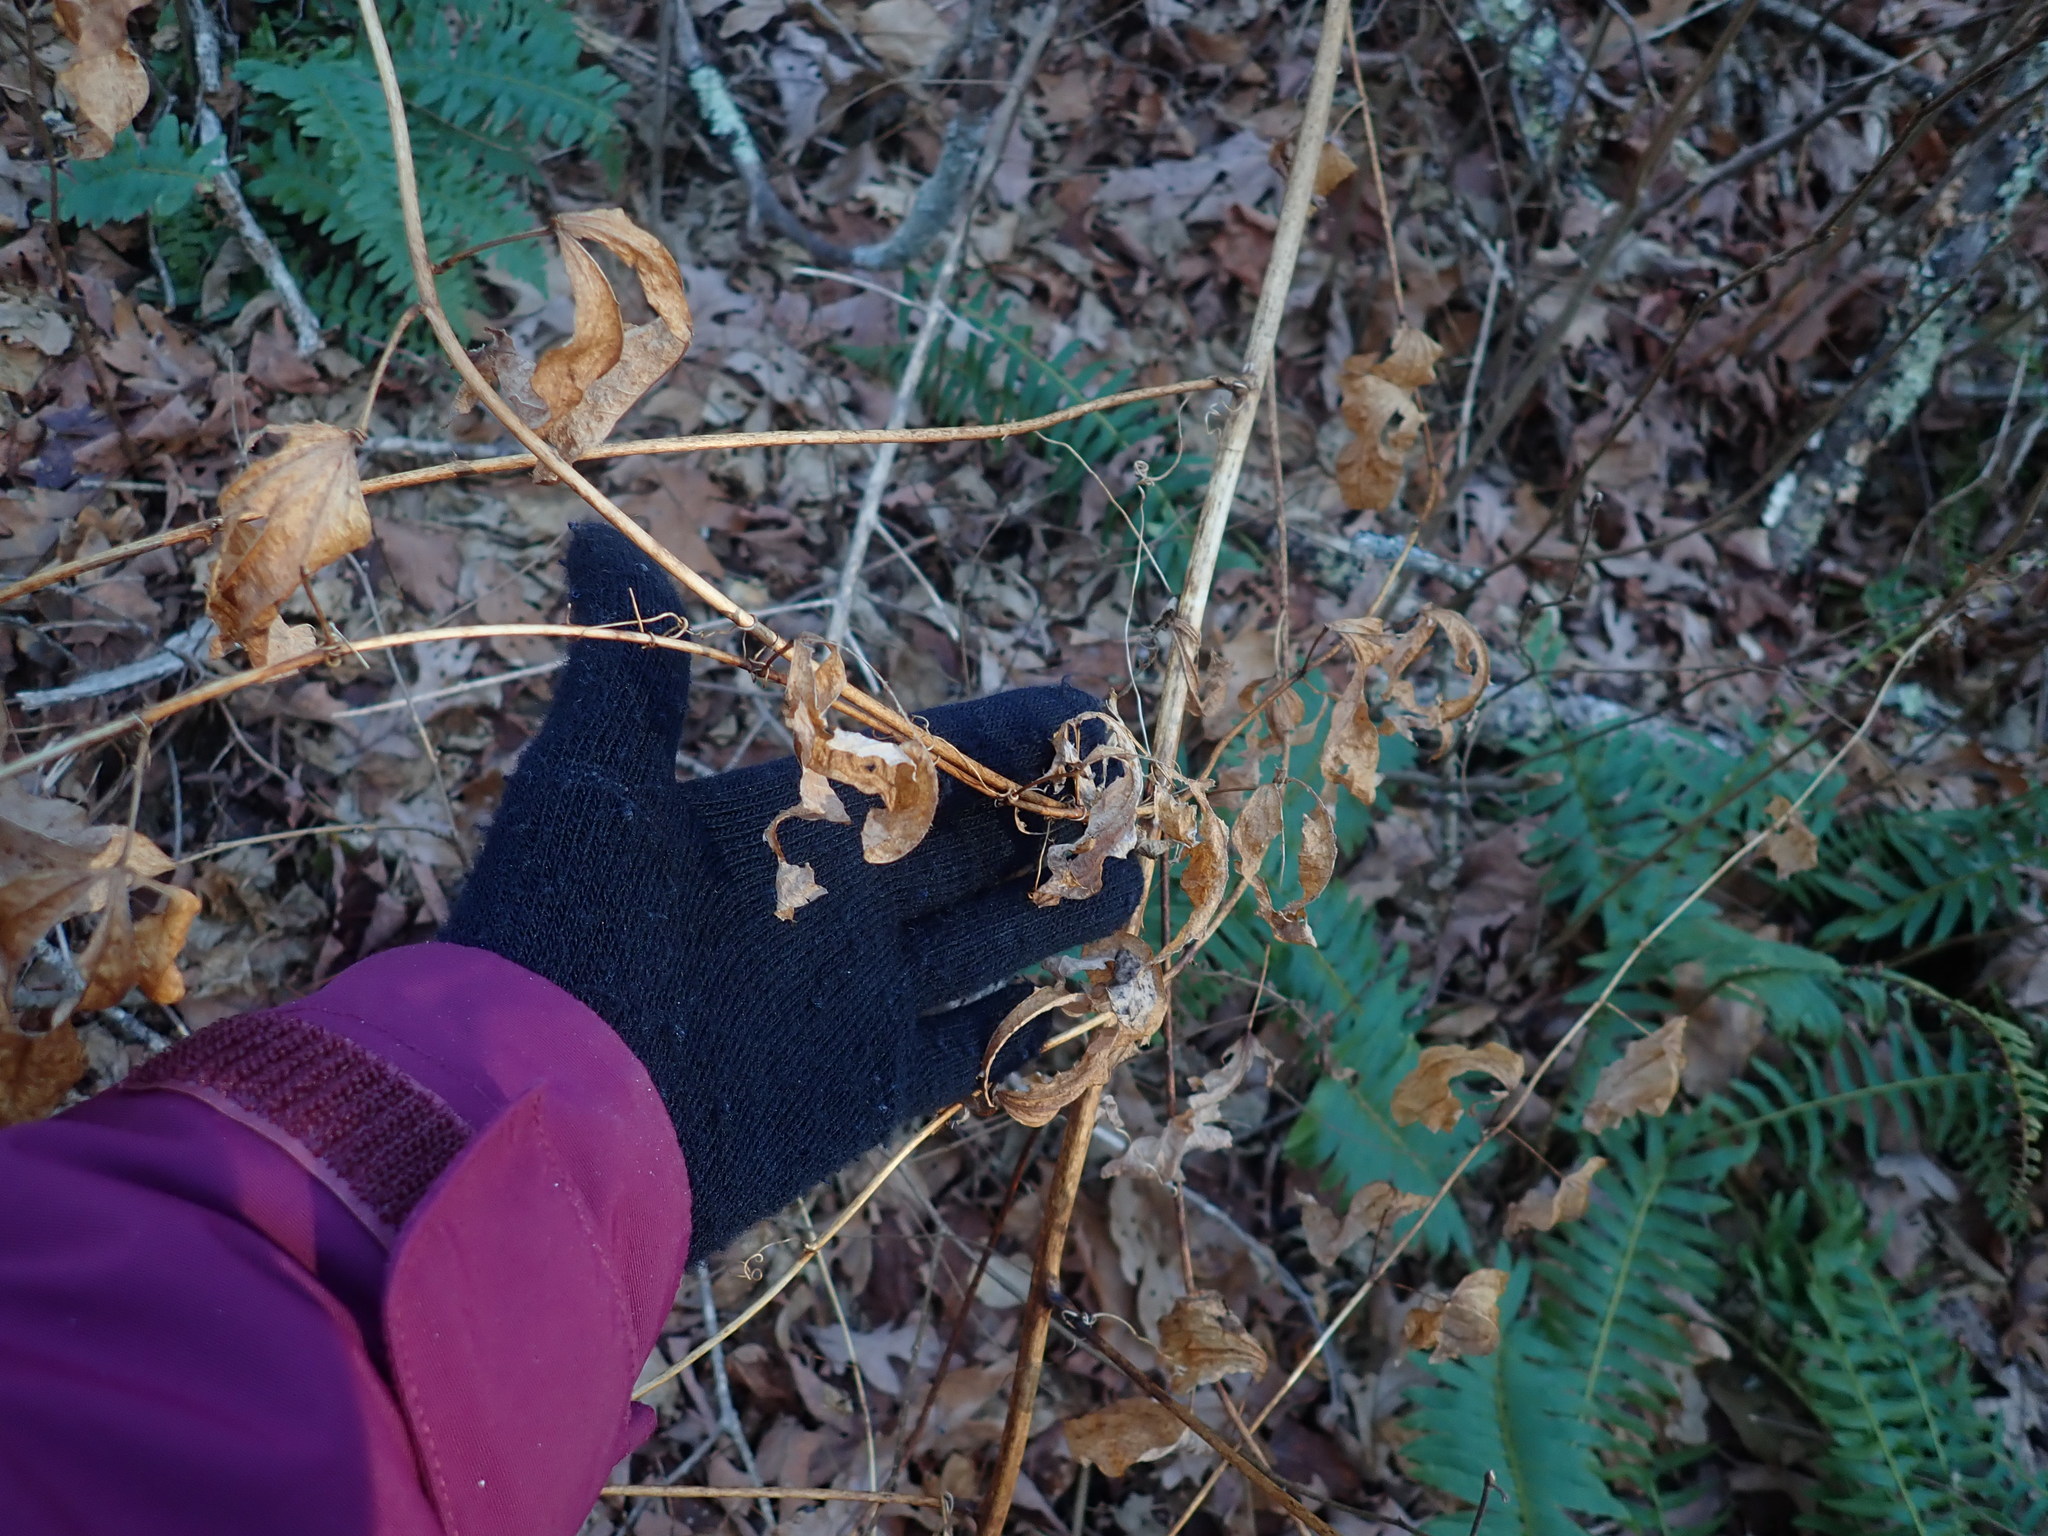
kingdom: Plantae
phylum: Tracheophyta
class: Liliopsida
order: Liliales
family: Smilacaceae
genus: Smilax
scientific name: Smilax herbacea
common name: Jacob's-ladder
